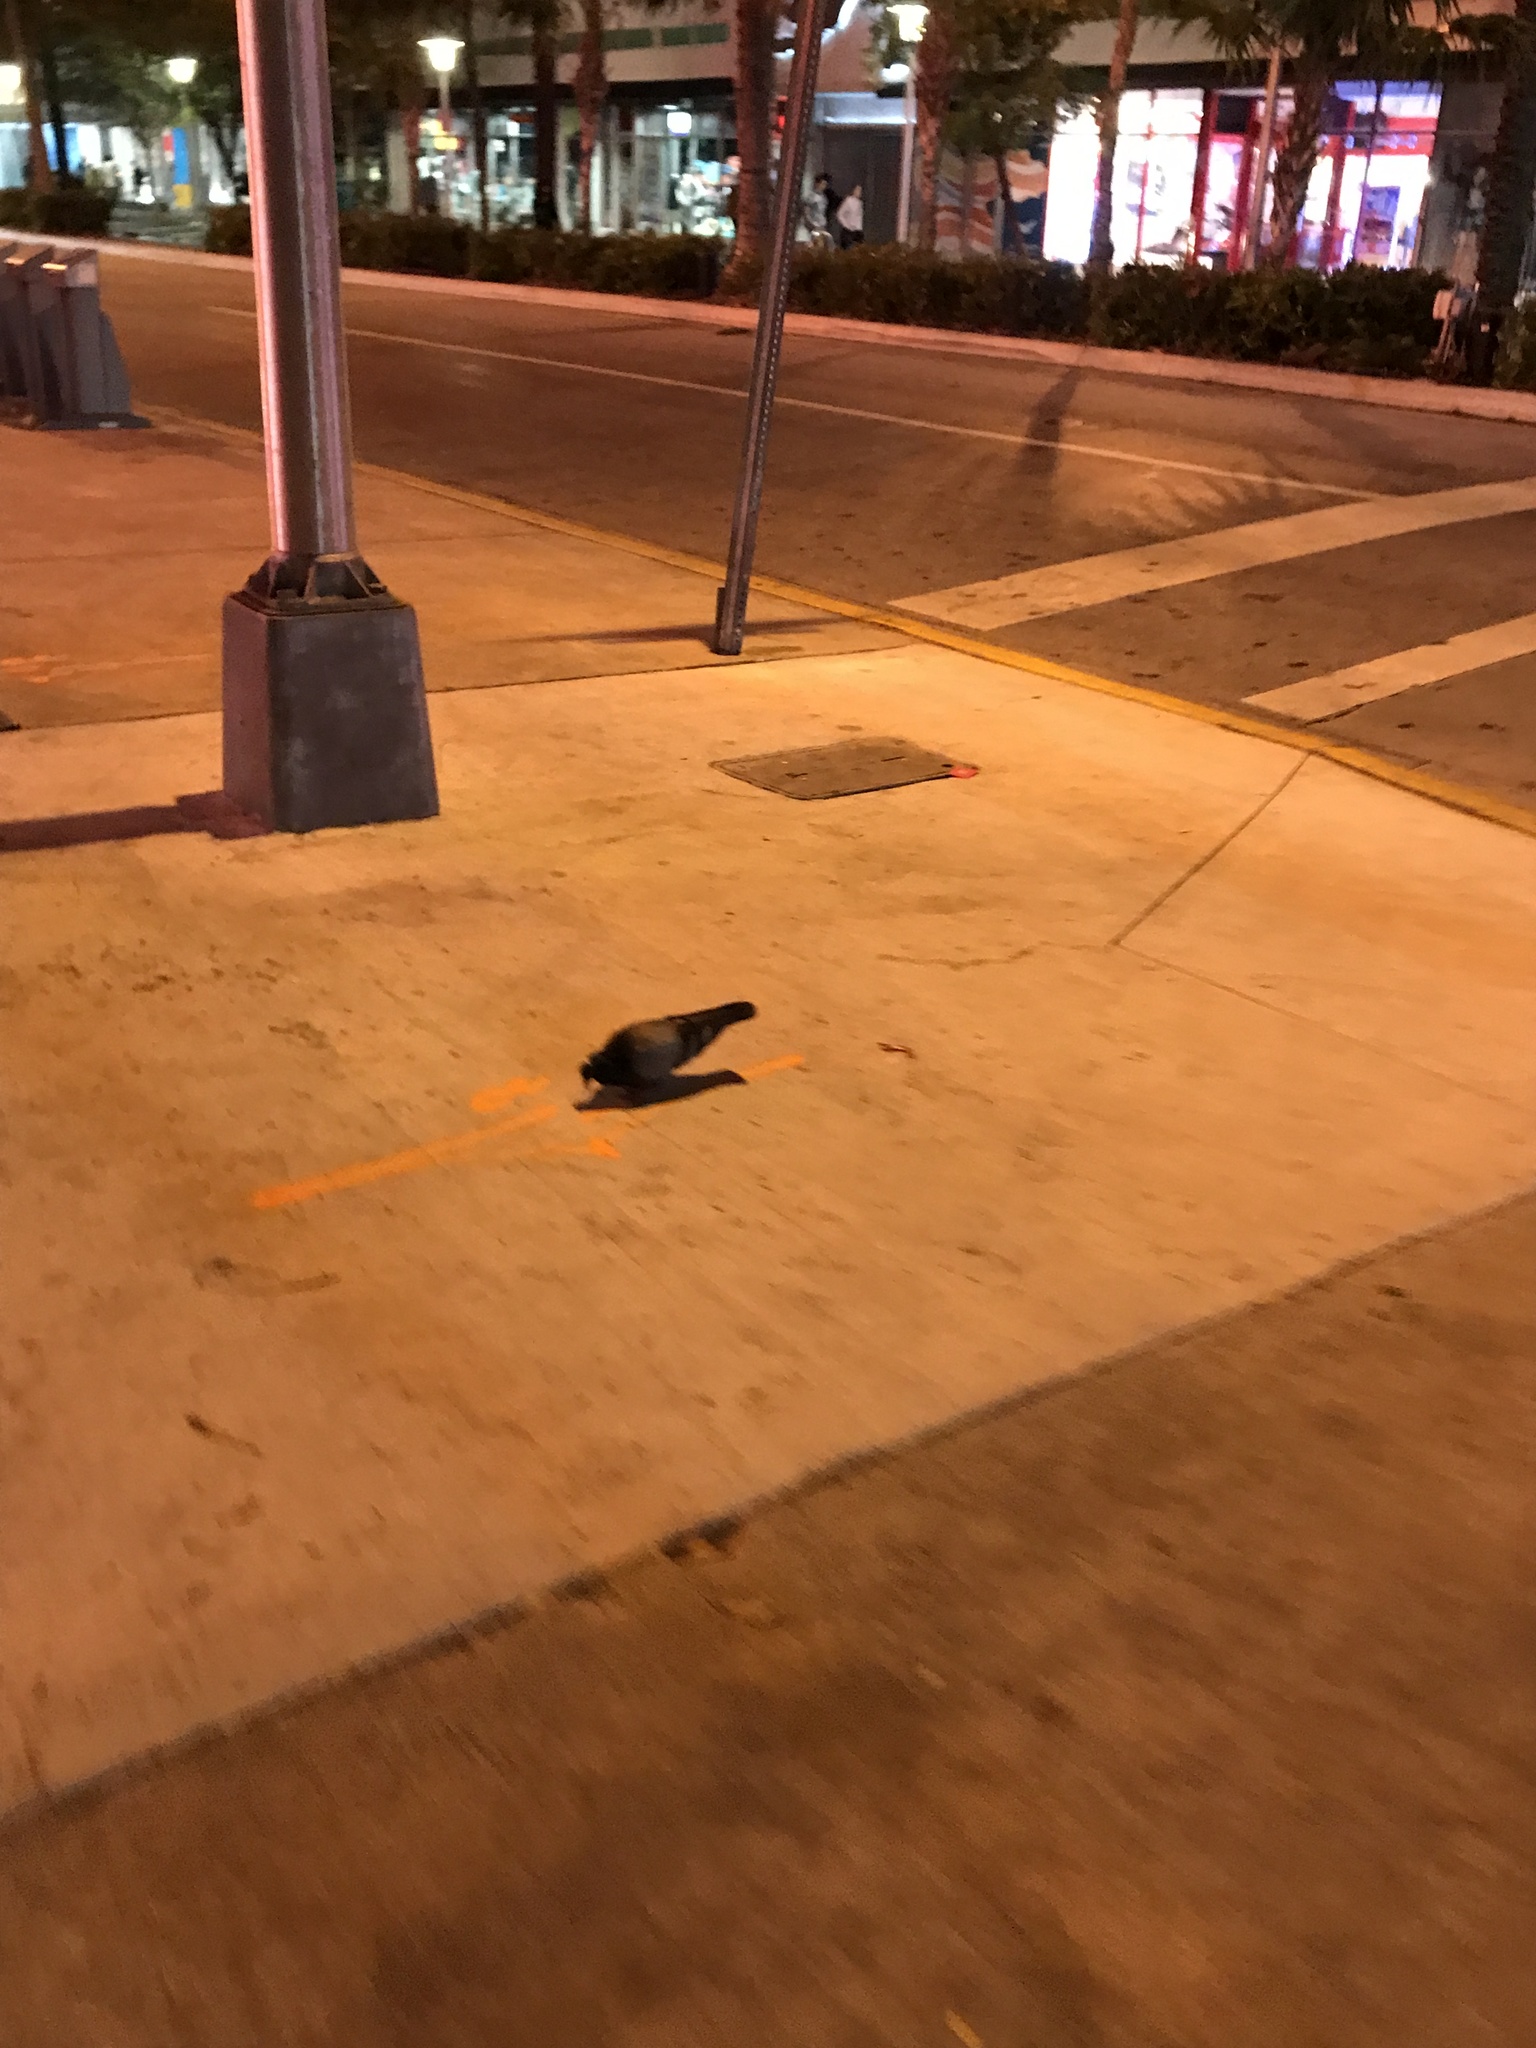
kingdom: Animalia
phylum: Chordata
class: Aves
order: Columbiformes
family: Columbidae
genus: Columba
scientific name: Columba livia
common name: Rock pigeon
